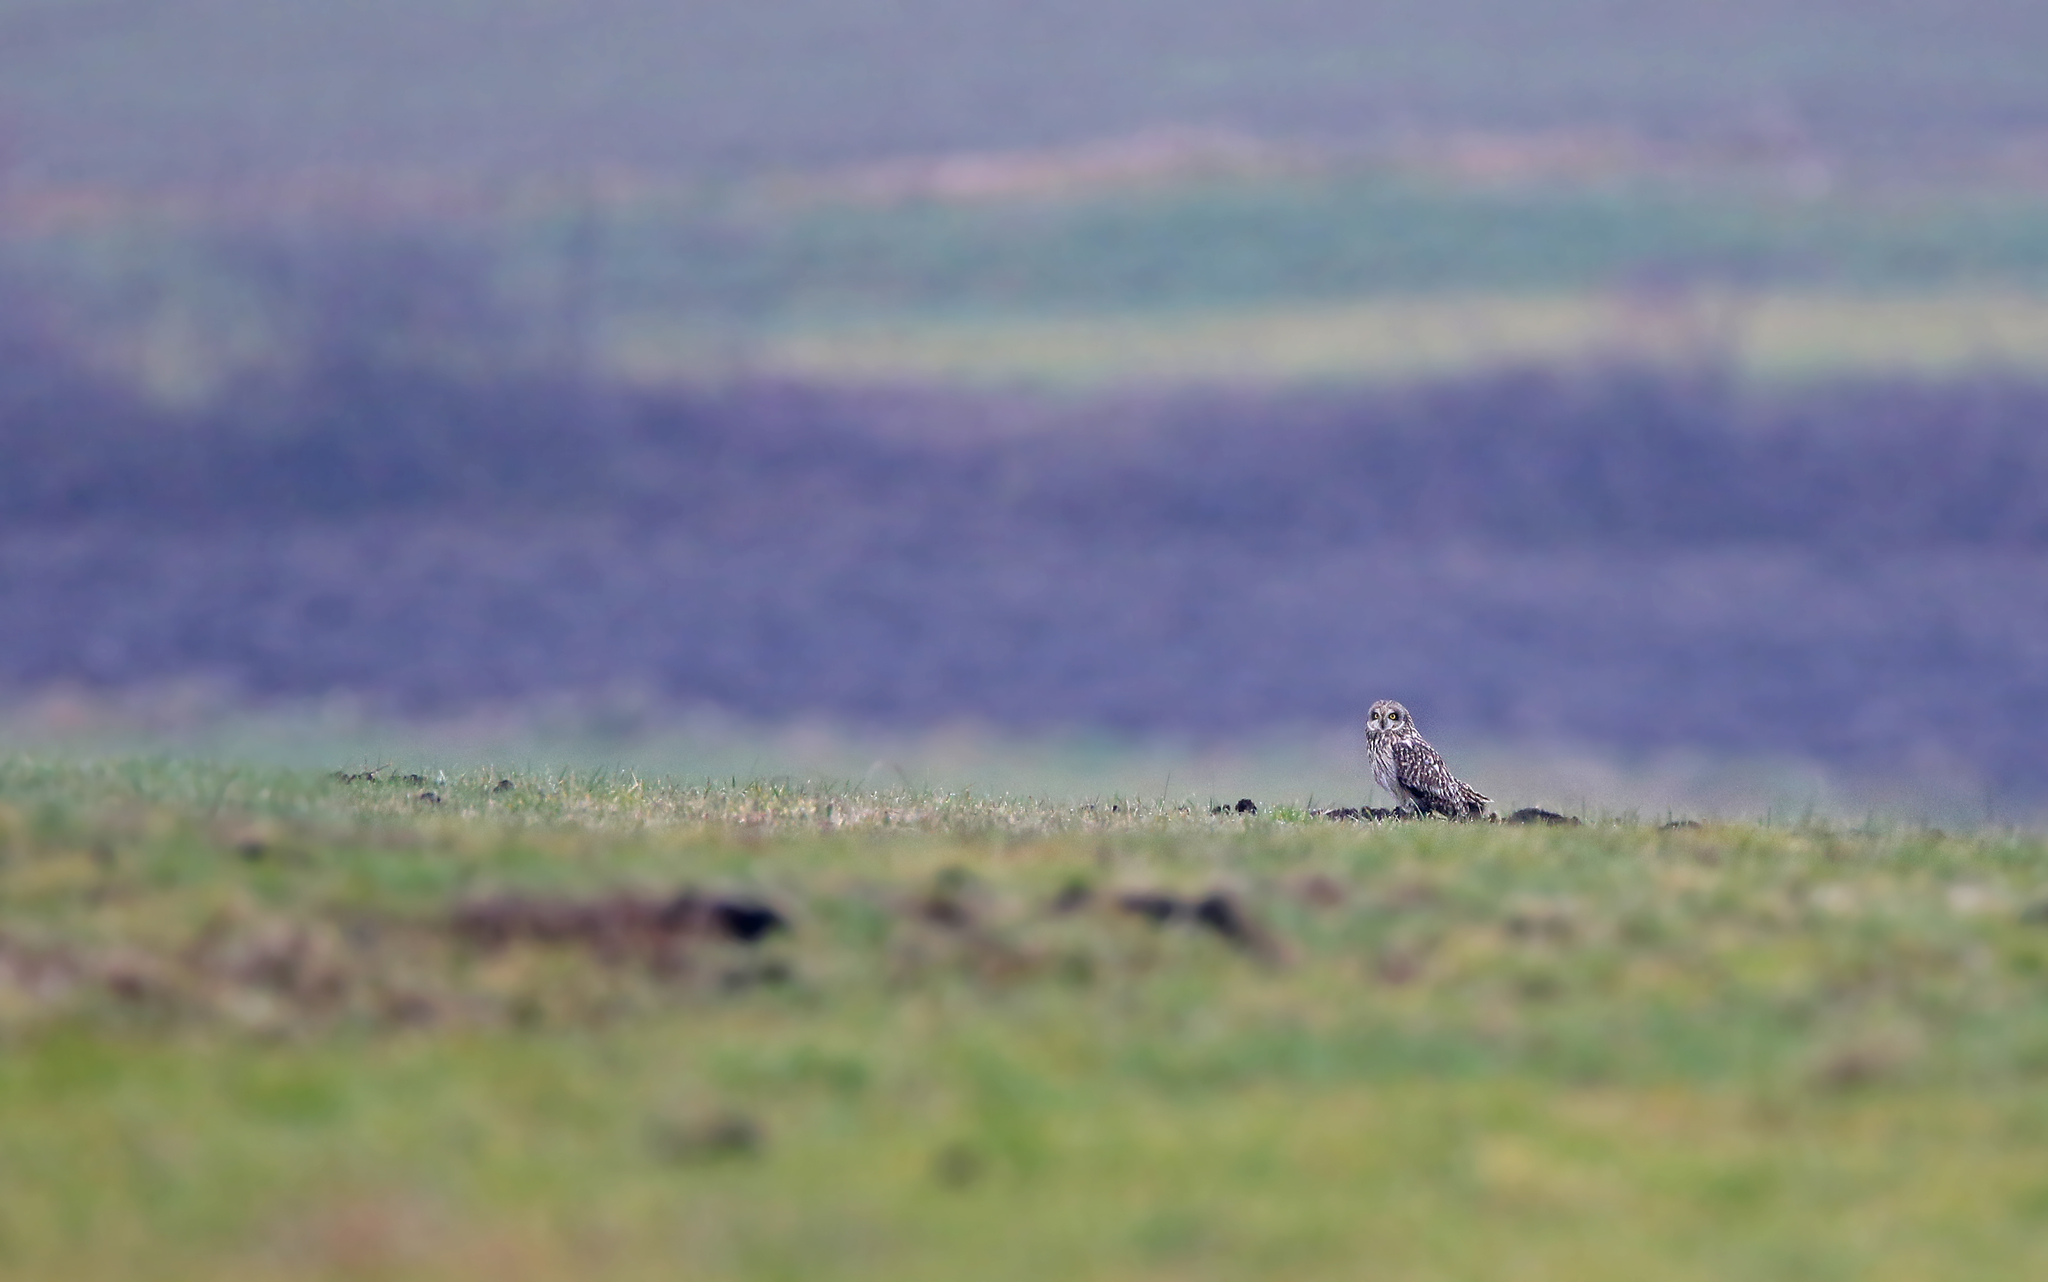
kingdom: Animalia
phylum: Chordata
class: Aves
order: Strigiformes
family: Strigidae
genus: Asio
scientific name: Asio flammeus
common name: Short-eared owl
